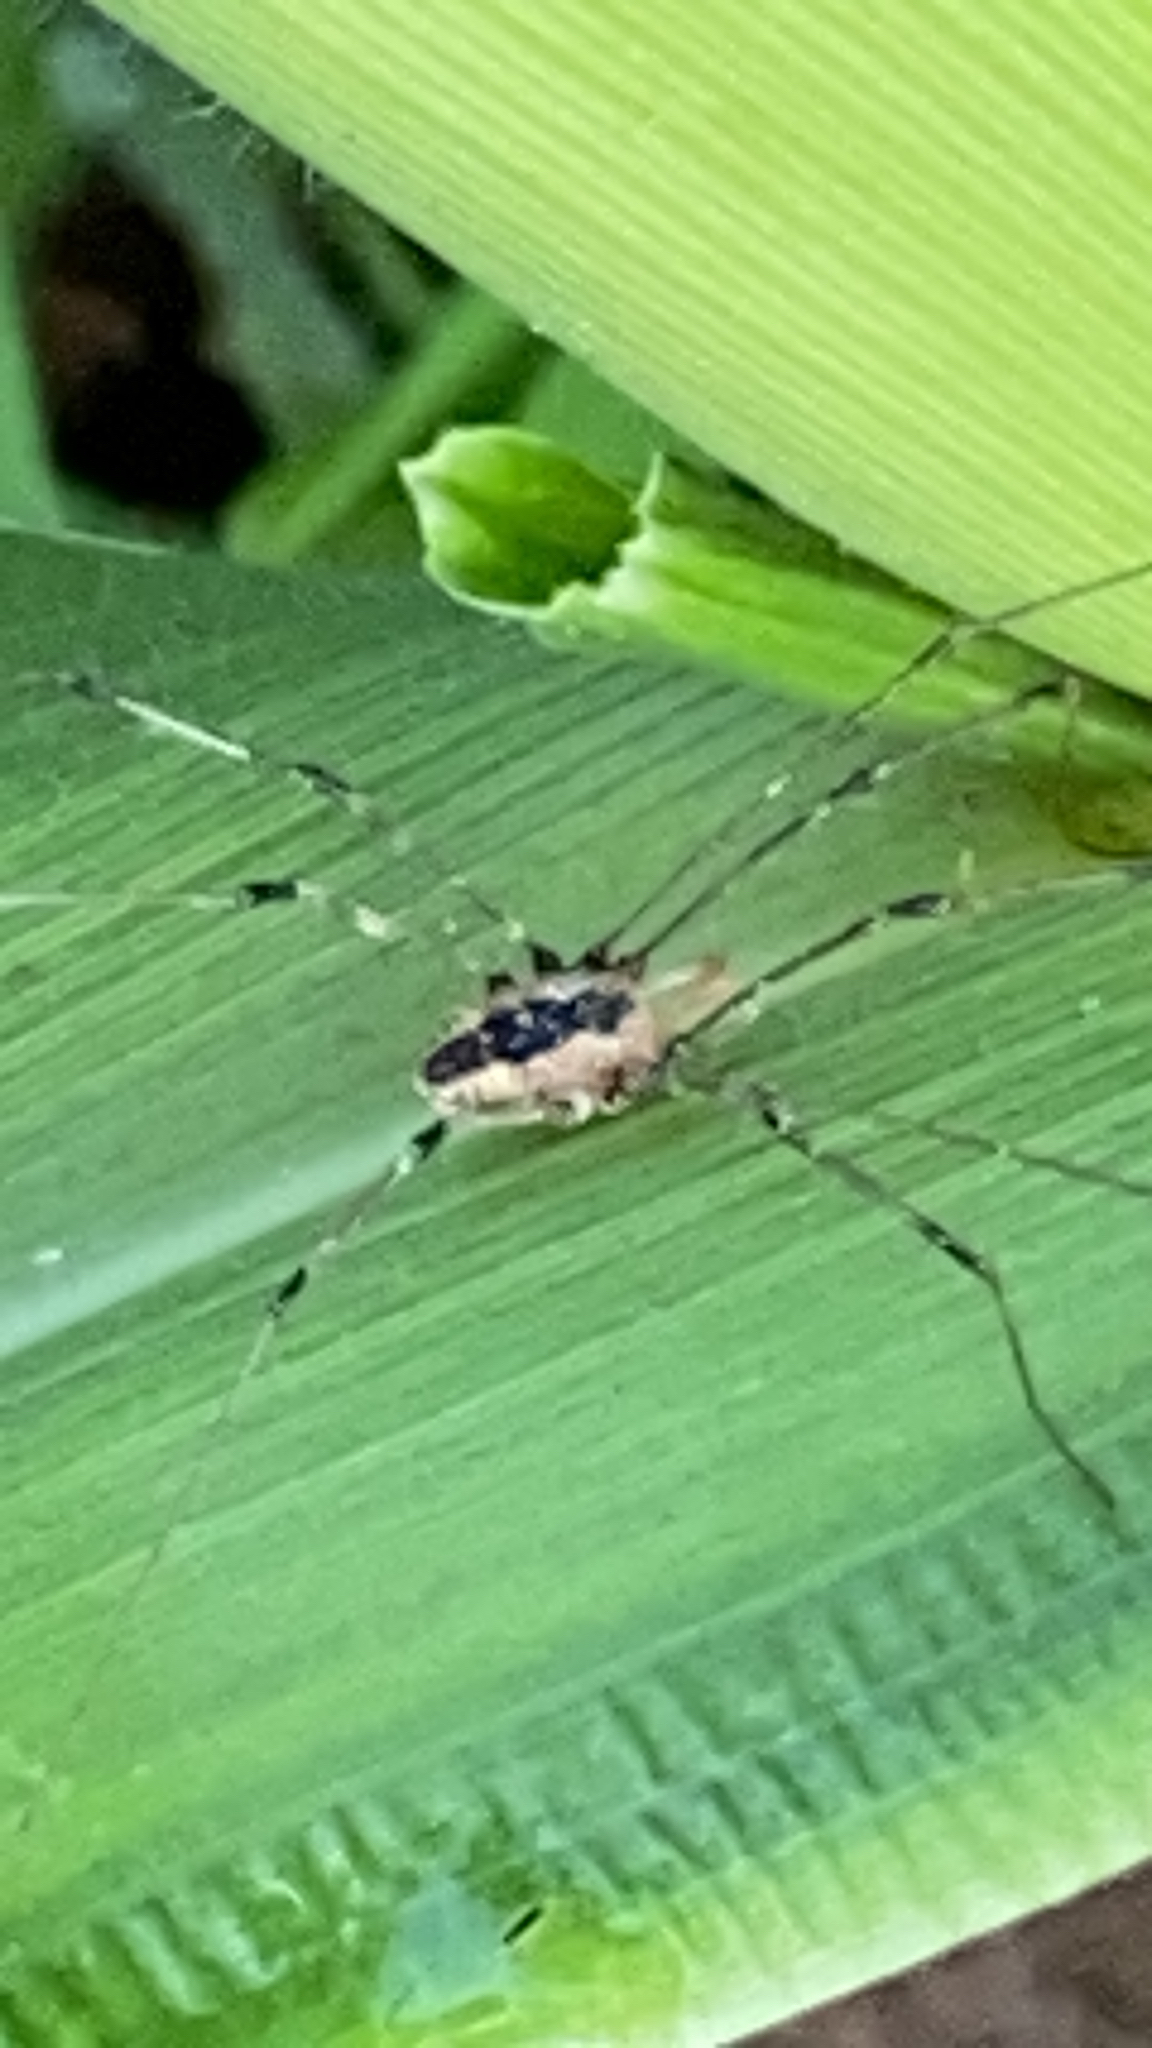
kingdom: Animalia
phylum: Arthropoda
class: Arachnida
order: Opiliones
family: Sclerosomatidae
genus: Leiobunum
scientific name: Leiobunum vittatum
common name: Eastern harvestman
